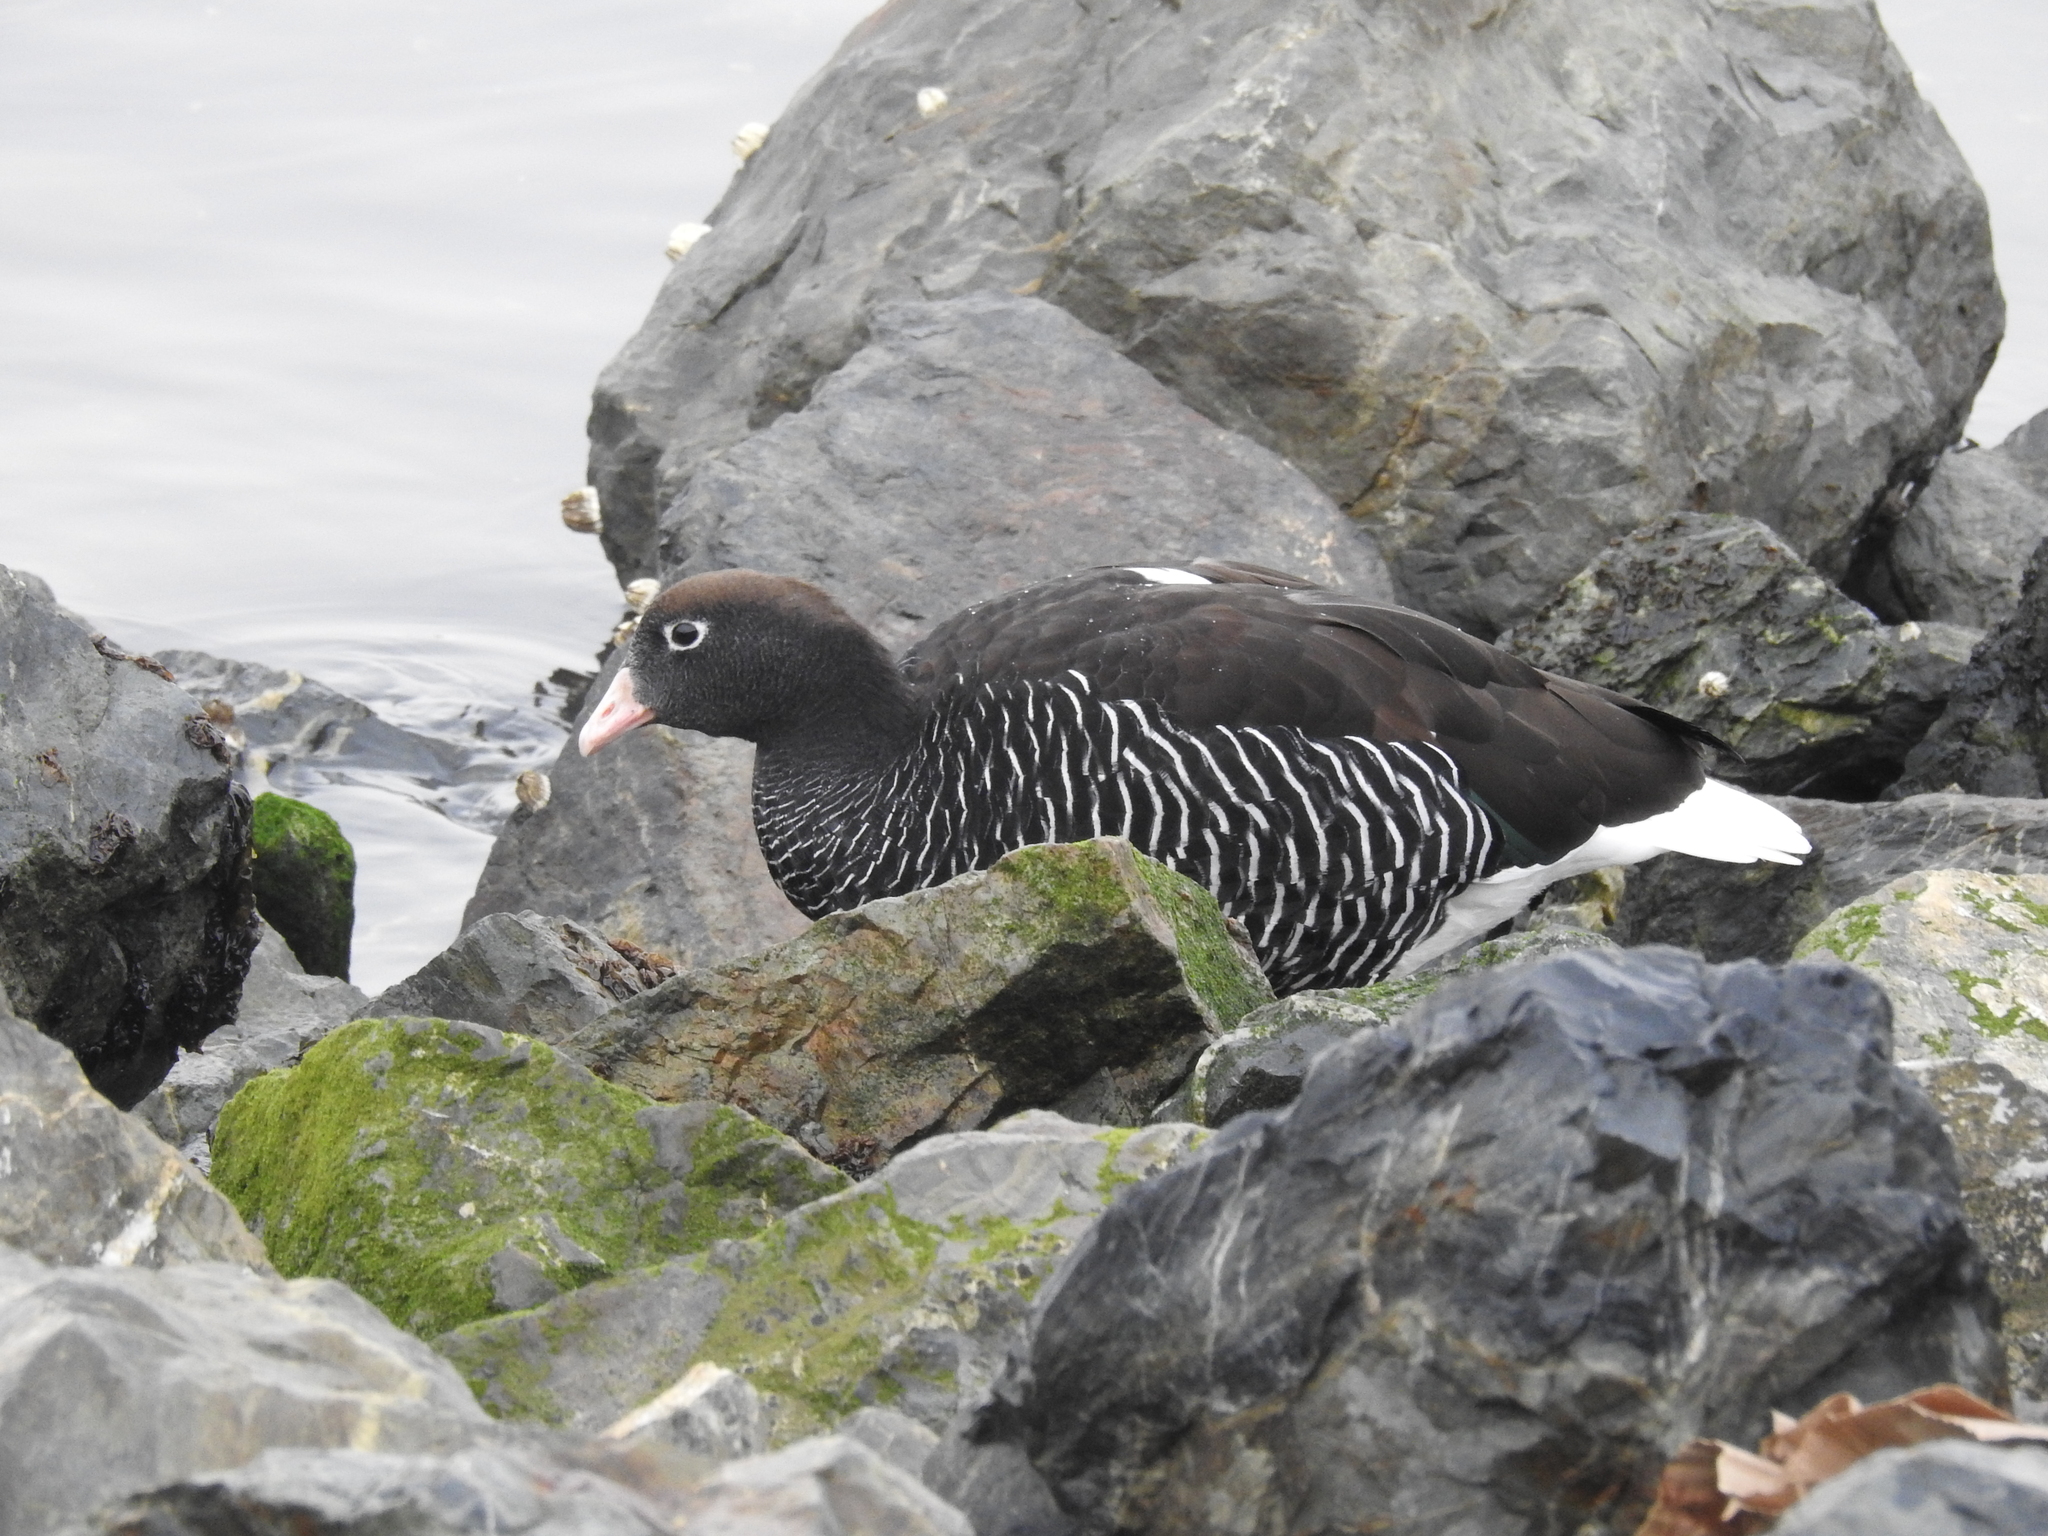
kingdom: Animalia
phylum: Chordata
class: Aves
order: Anseriformes
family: Anatidae
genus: Chloephaga
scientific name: Chloephaga hybrida
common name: Kelp goose
